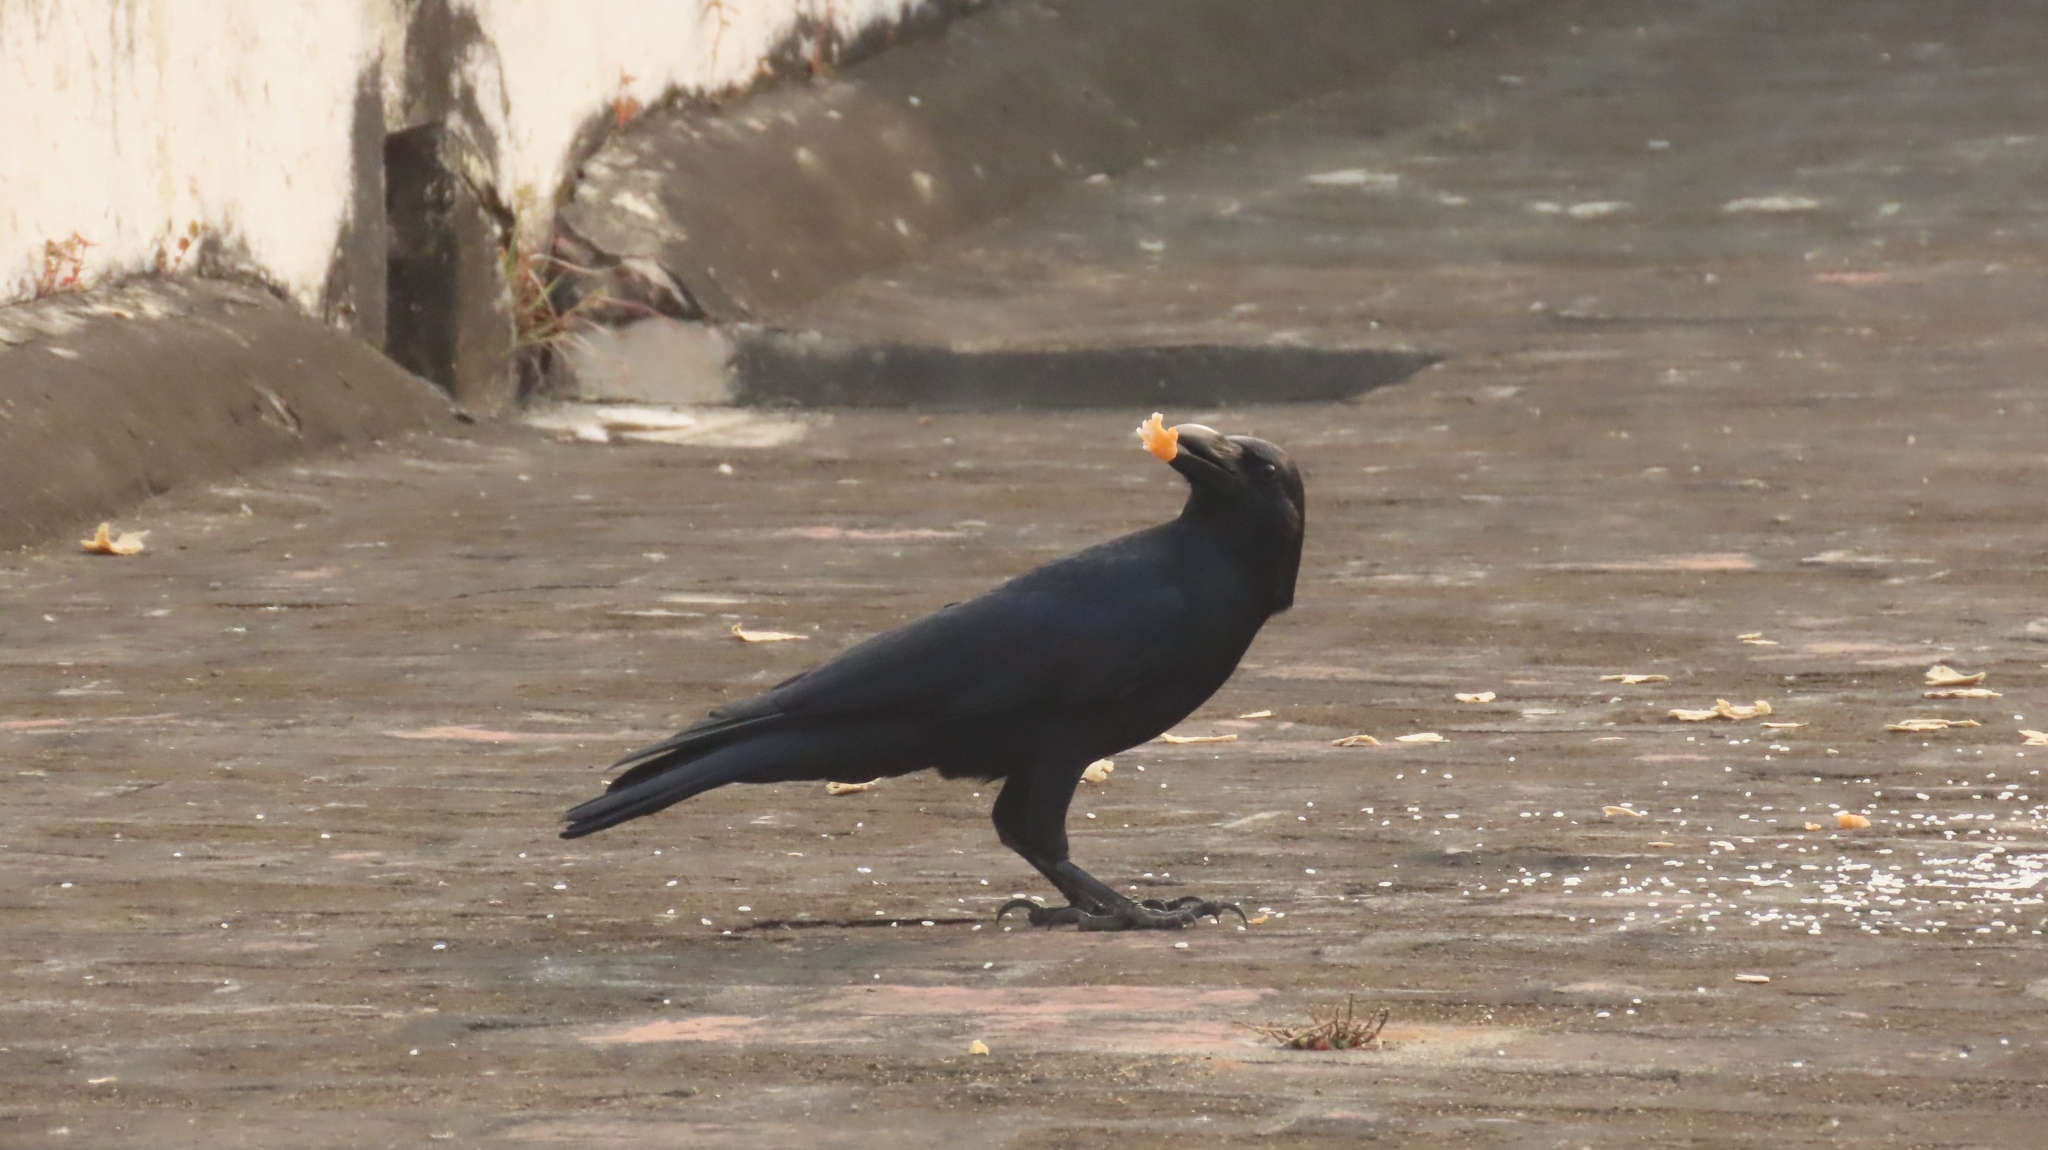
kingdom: Animalia
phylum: Chordata
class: Aves
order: Passeriformes
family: Corvidae
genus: Corvus
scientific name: Corvus macrorhynchos
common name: Large-billed crow
